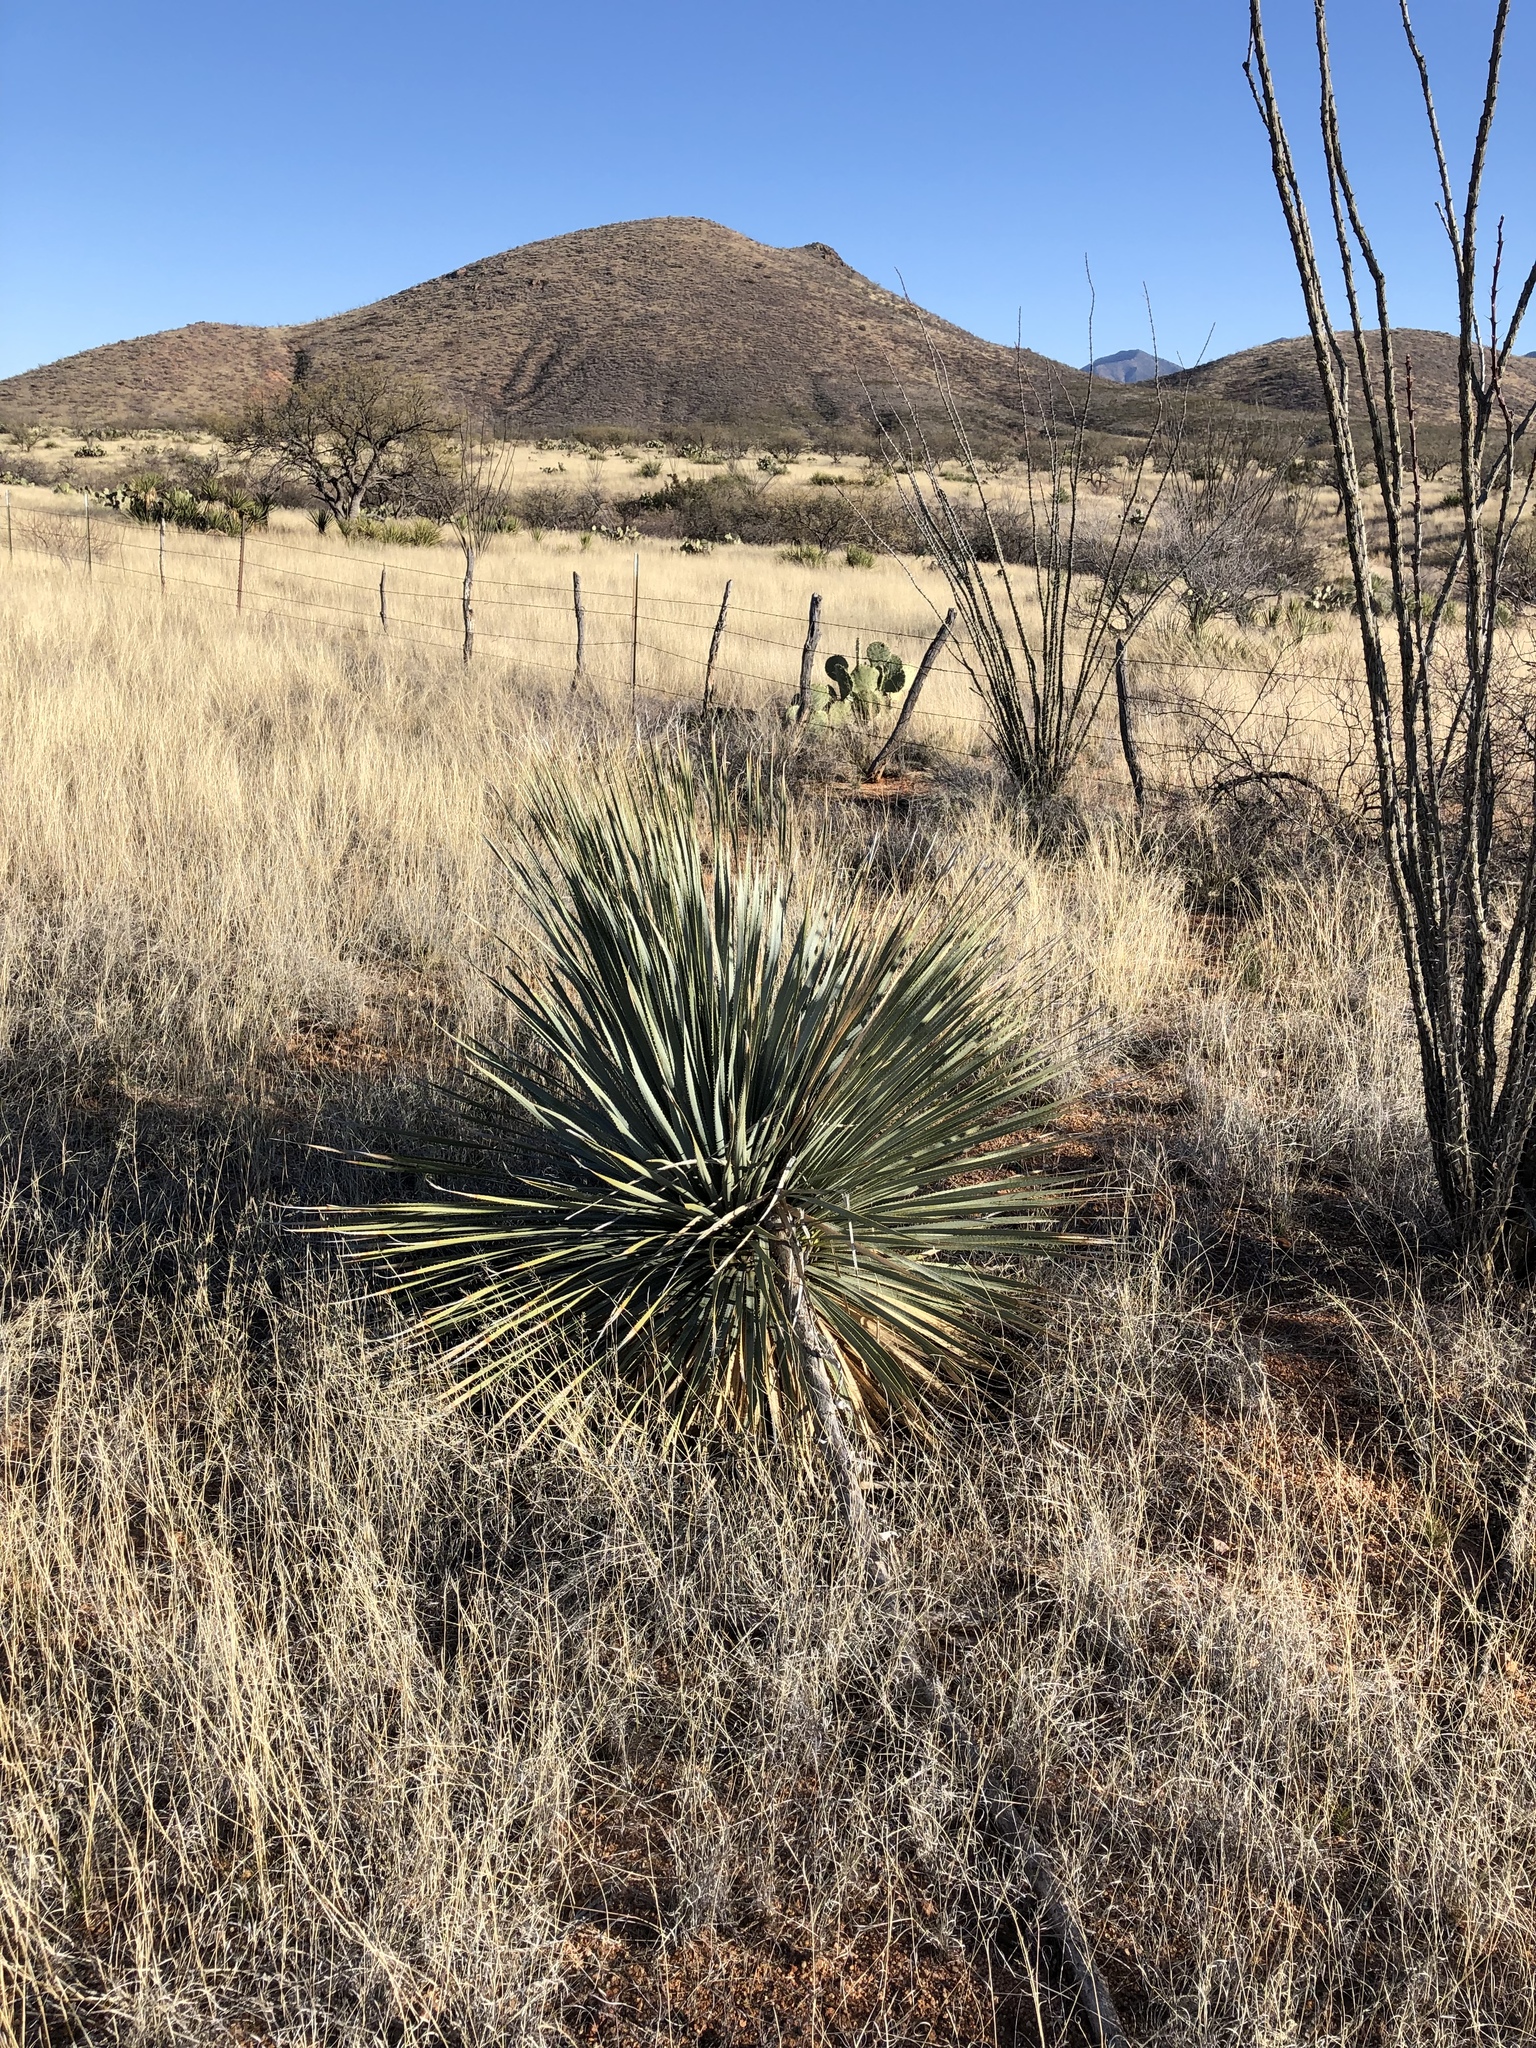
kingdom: Plantae
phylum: Tracheophyta
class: Liliopsida
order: Asparagales
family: Asparagaceae
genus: Dasylirion
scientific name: Dasylirion wheeleri
